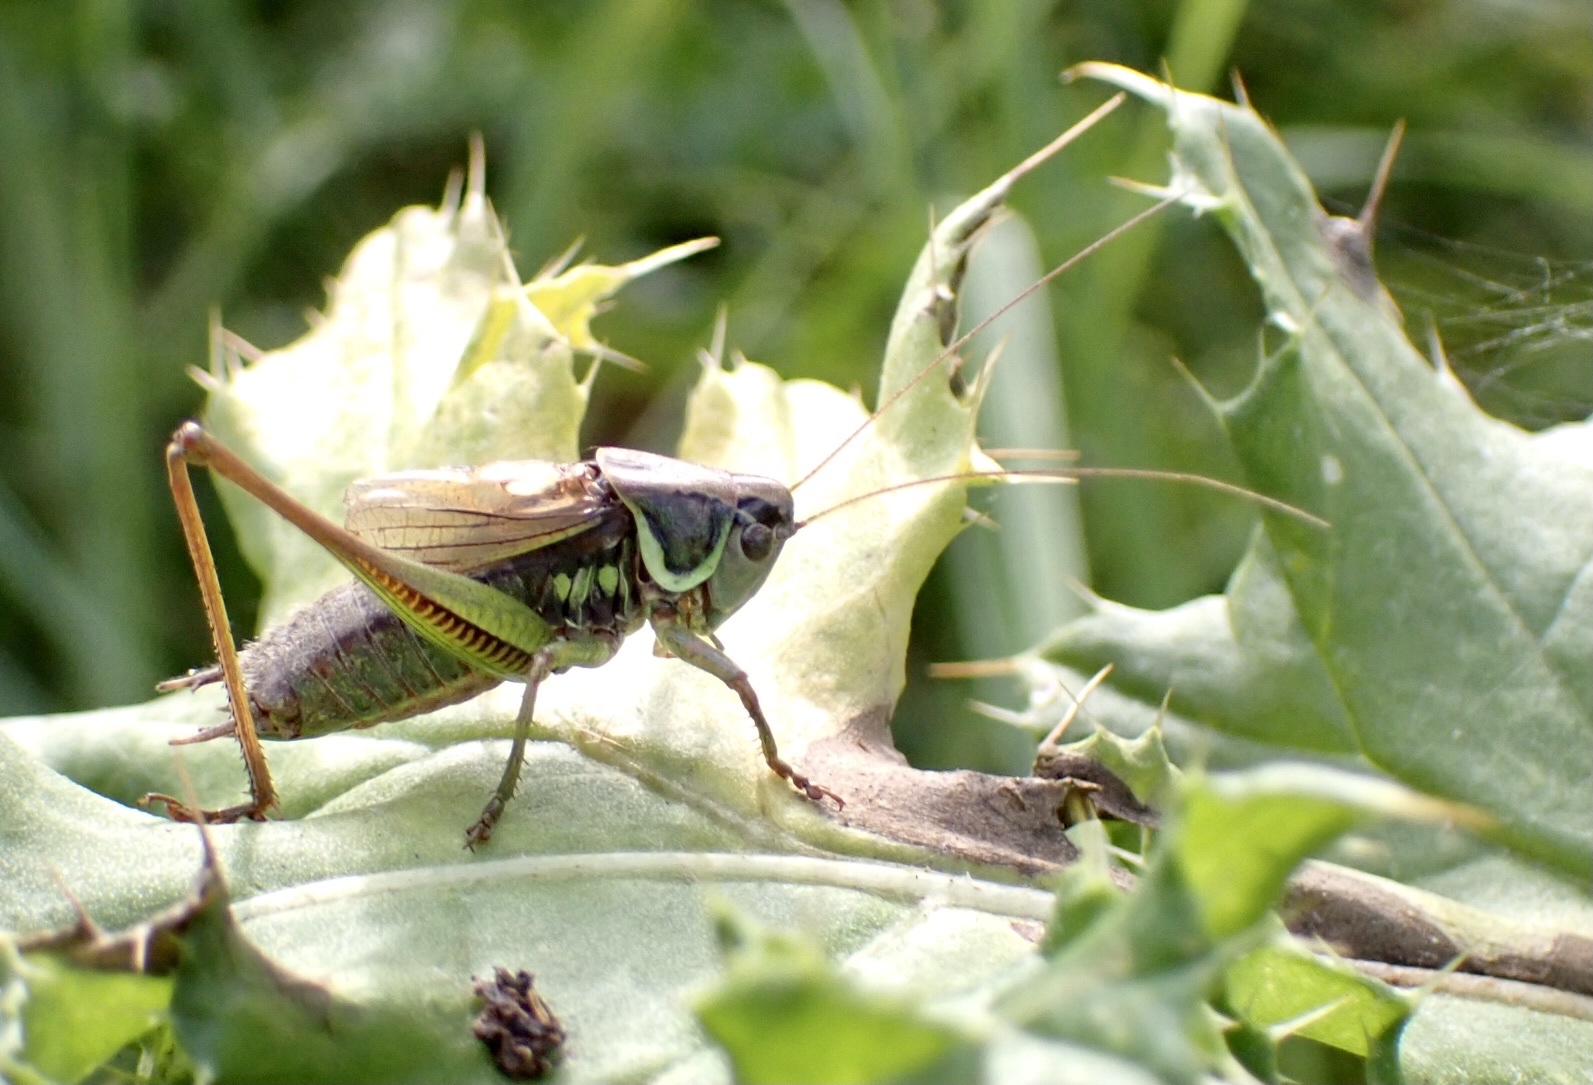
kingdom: Animalia
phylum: Arthropoda
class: Insecta
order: Orthoptera
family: Tettigoniidae
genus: Roeseliana
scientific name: Roeseliana roeselii
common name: Roesel's bush cricket
